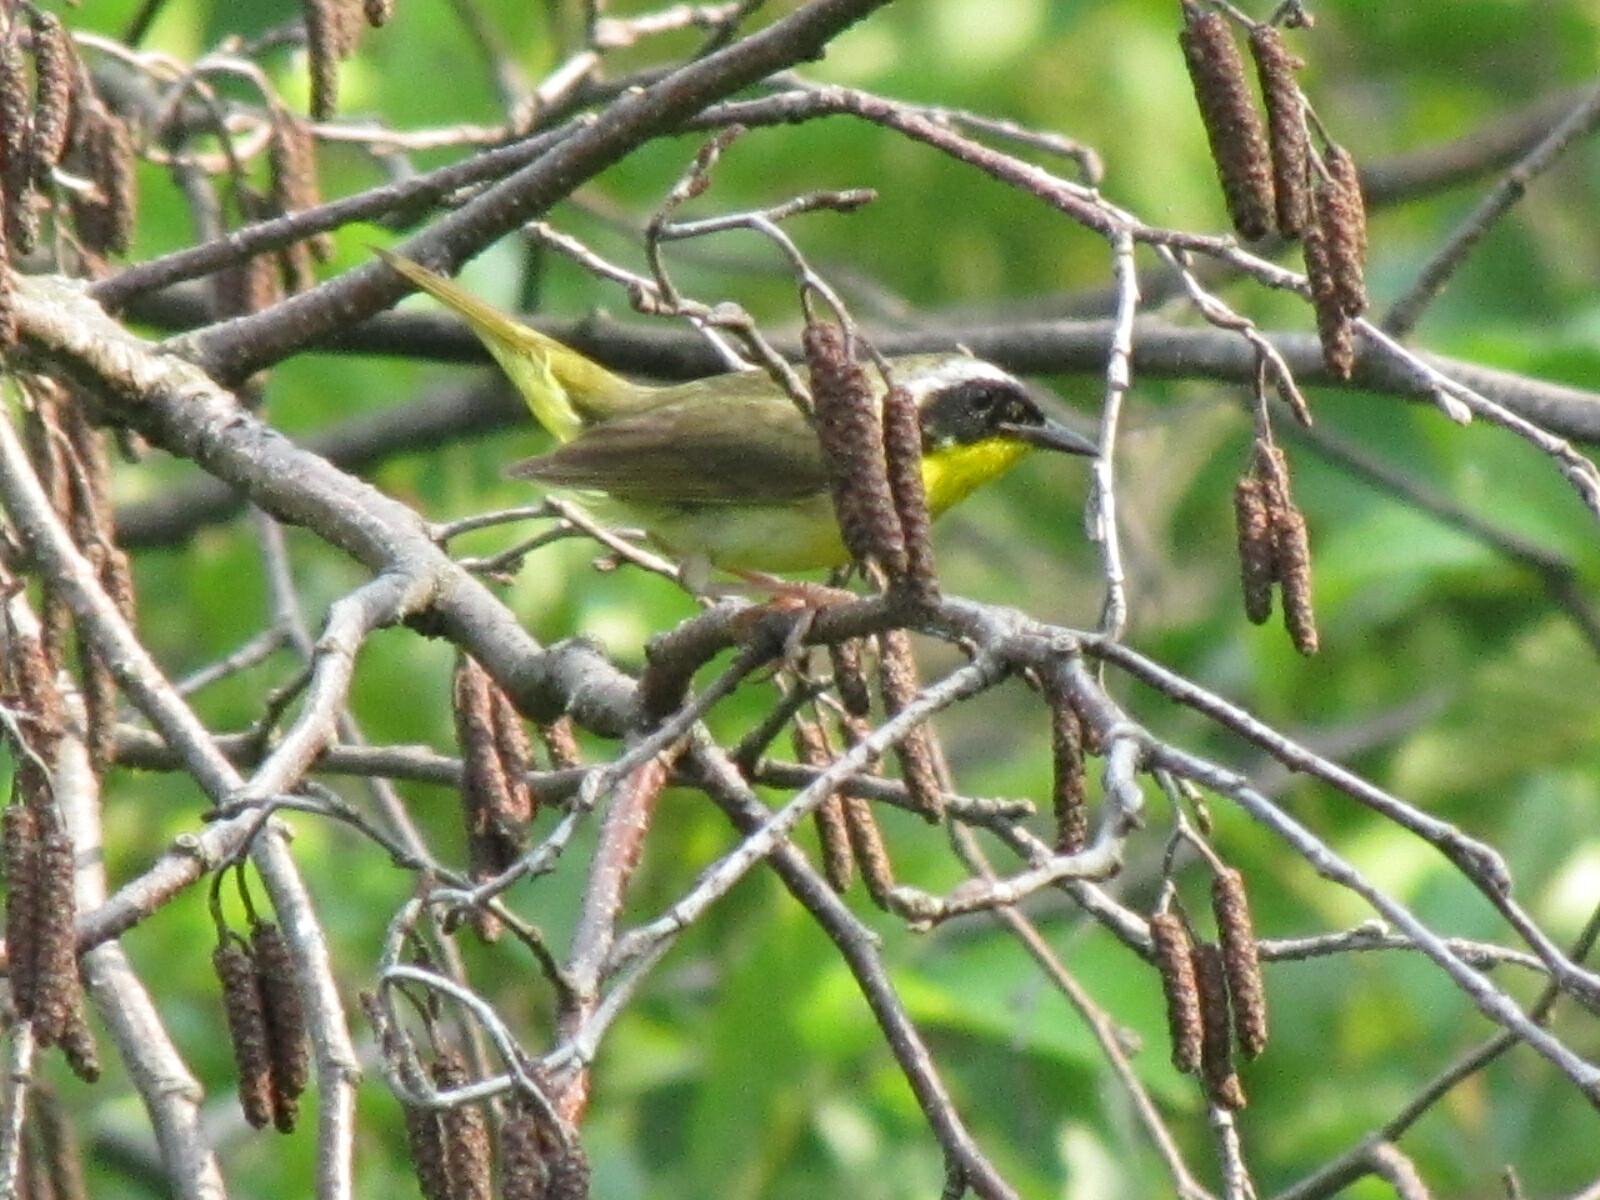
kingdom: Animalia
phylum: Chordata
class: Aves
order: Passeriformes
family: Parulidae
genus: Geothlypis
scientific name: Geothlypis trichas
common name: Common yellowthroat
